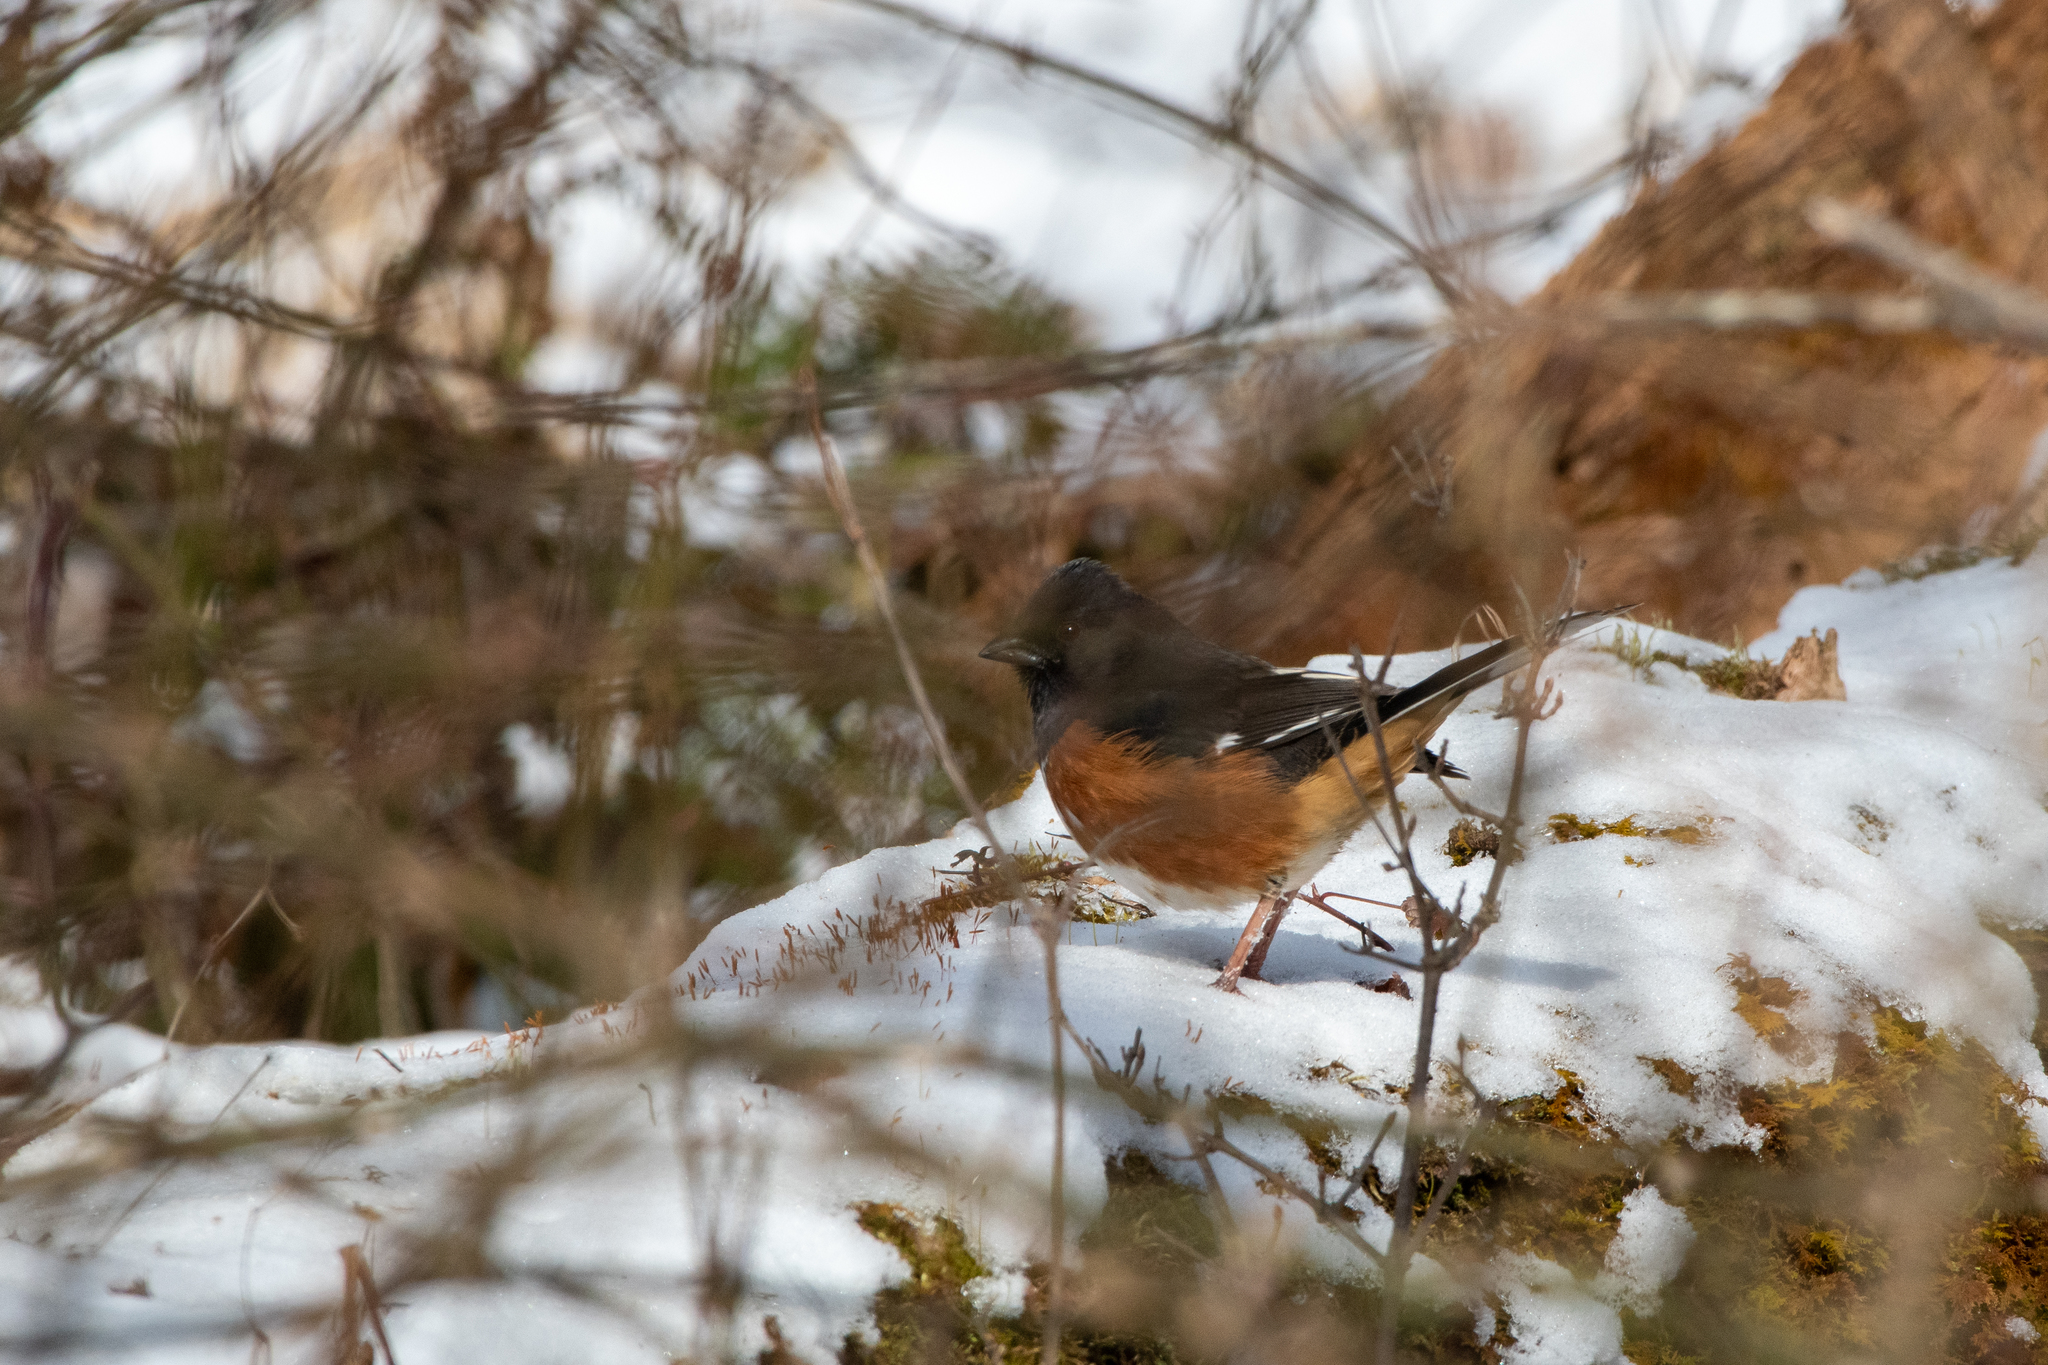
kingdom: Animalia
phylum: Chordata
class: Aves
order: Passeriformes
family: Passerellidae
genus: Pipilo
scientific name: Pipilo erythrophthalmus
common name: Eastern towhee
